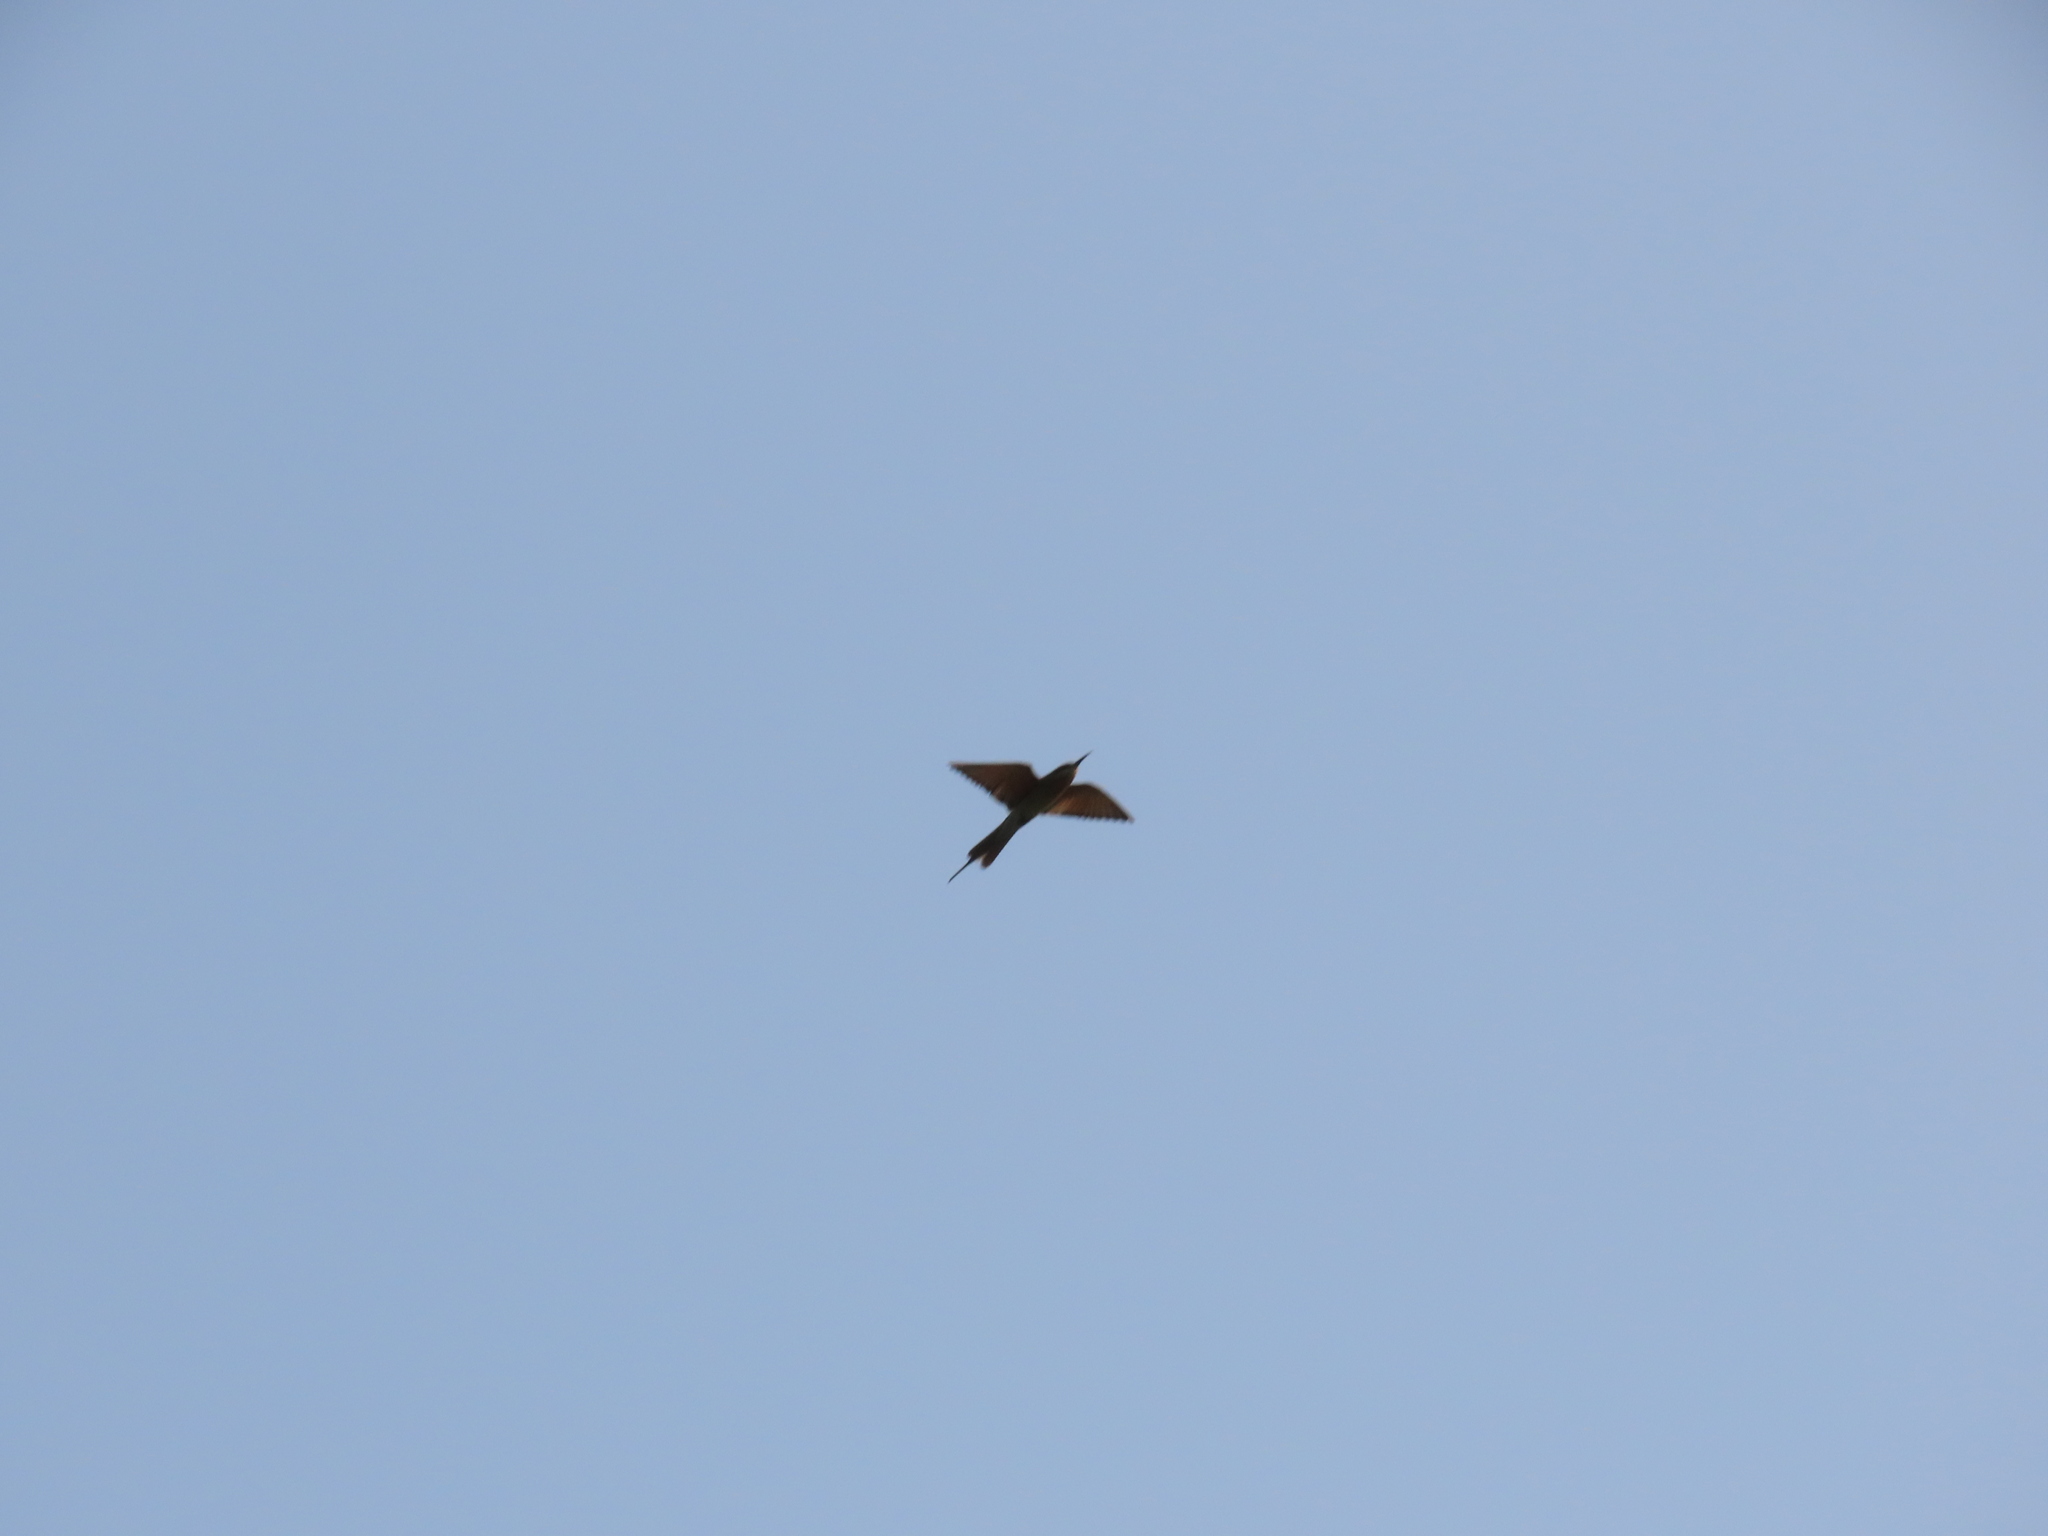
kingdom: Animalia
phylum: Chordata
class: Aves
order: Coraciiformes
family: Meropidae
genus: Merops
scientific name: Merops philippinus
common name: Blue-tailed bee-eater
